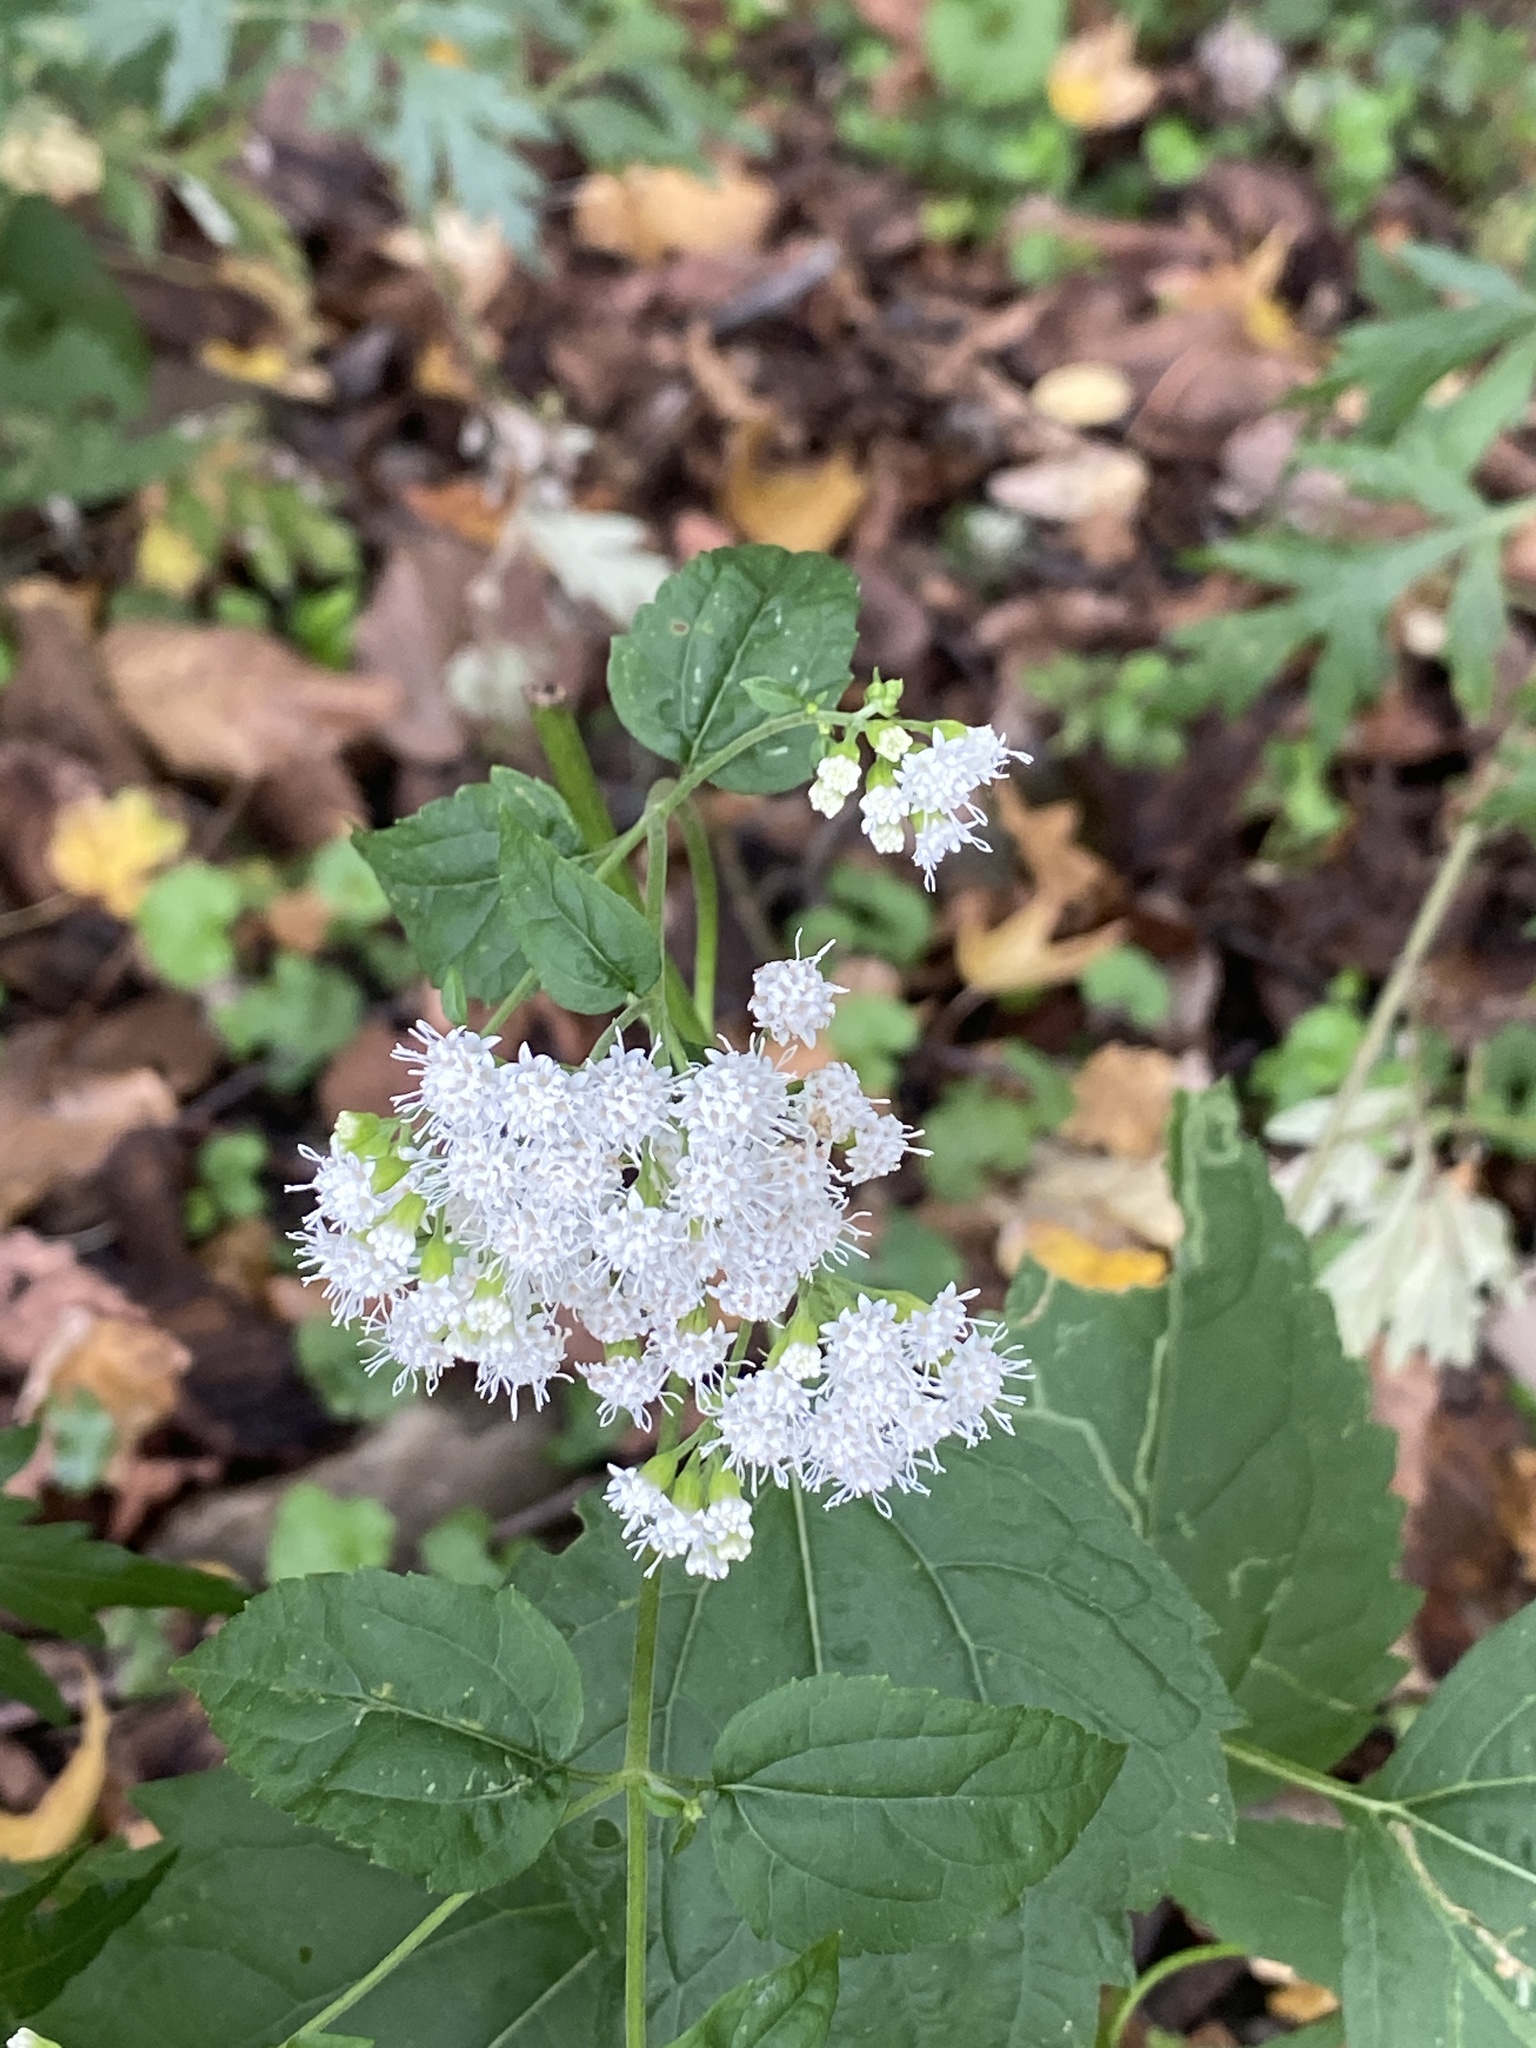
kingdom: Plantae
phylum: Tracheophyta
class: Magnoliopsida
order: Asterales
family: Asteraceae
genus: Ageratina
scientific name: Ageratina altissima
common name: White snakeroot
